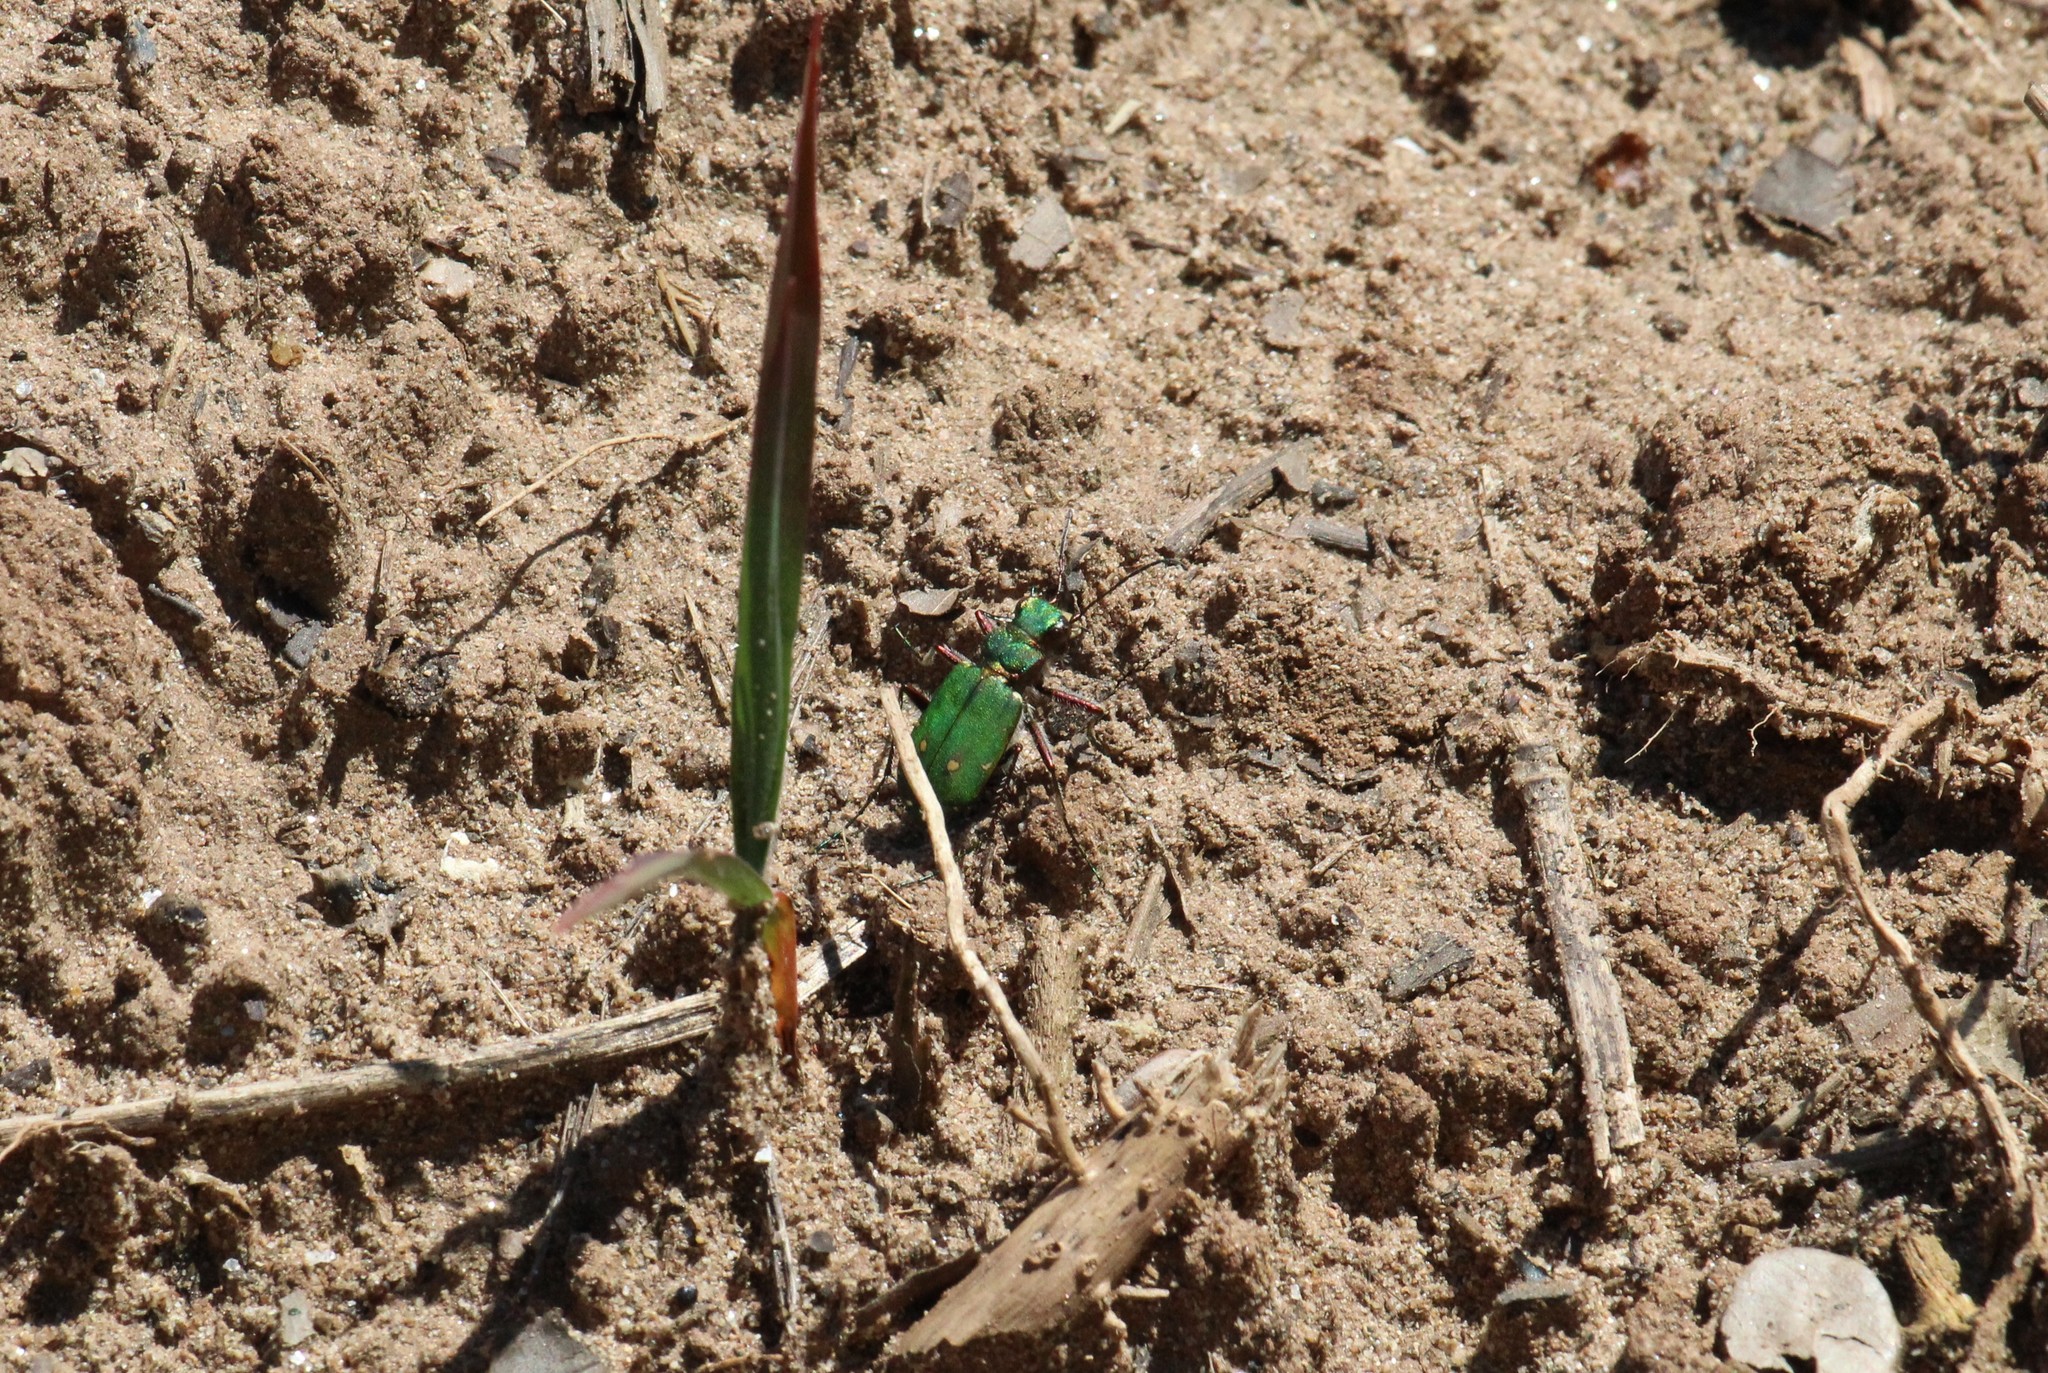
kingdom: Animalia
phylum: Arthropoda
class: Insecta
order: Coleoptera
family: Carabidae
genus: Cicindela
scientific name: Cicindela campestris
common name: Common tiger beetle
